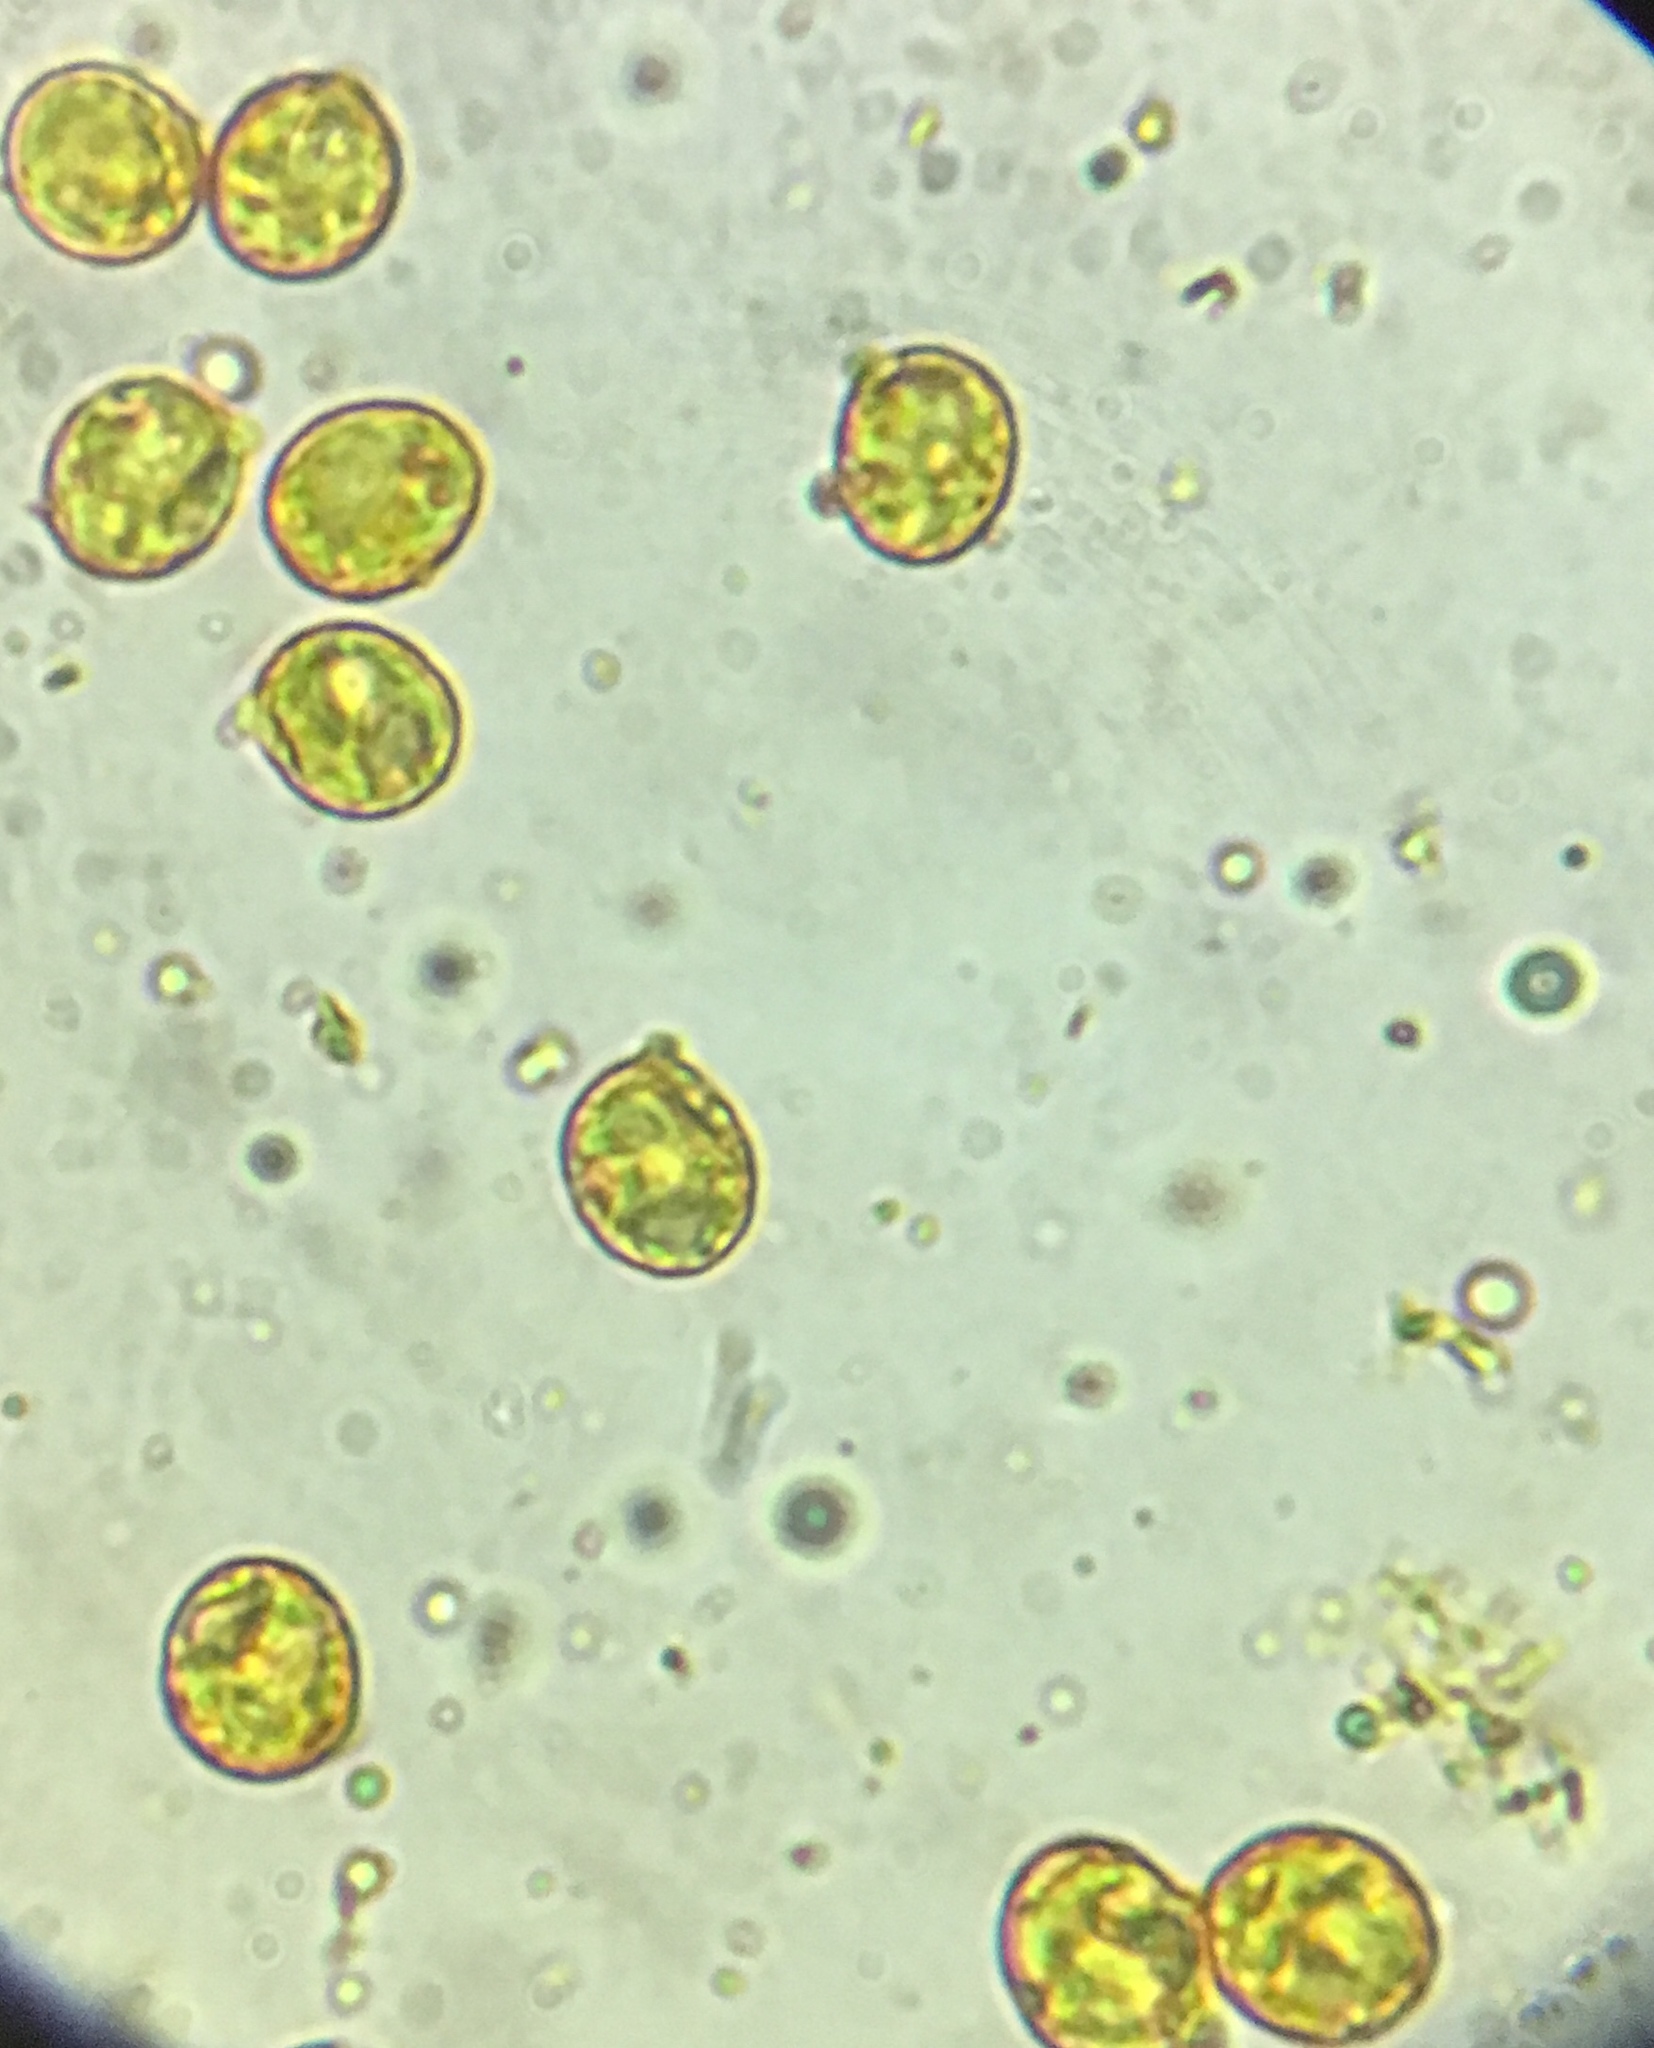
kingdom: Fungi
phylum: Basidiomycota
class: Agaricomycetes
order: Agaricales
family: Amanitaceae
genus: Amanita
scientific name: Amanita multisquamosa
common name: Small funnel-veil amanita
